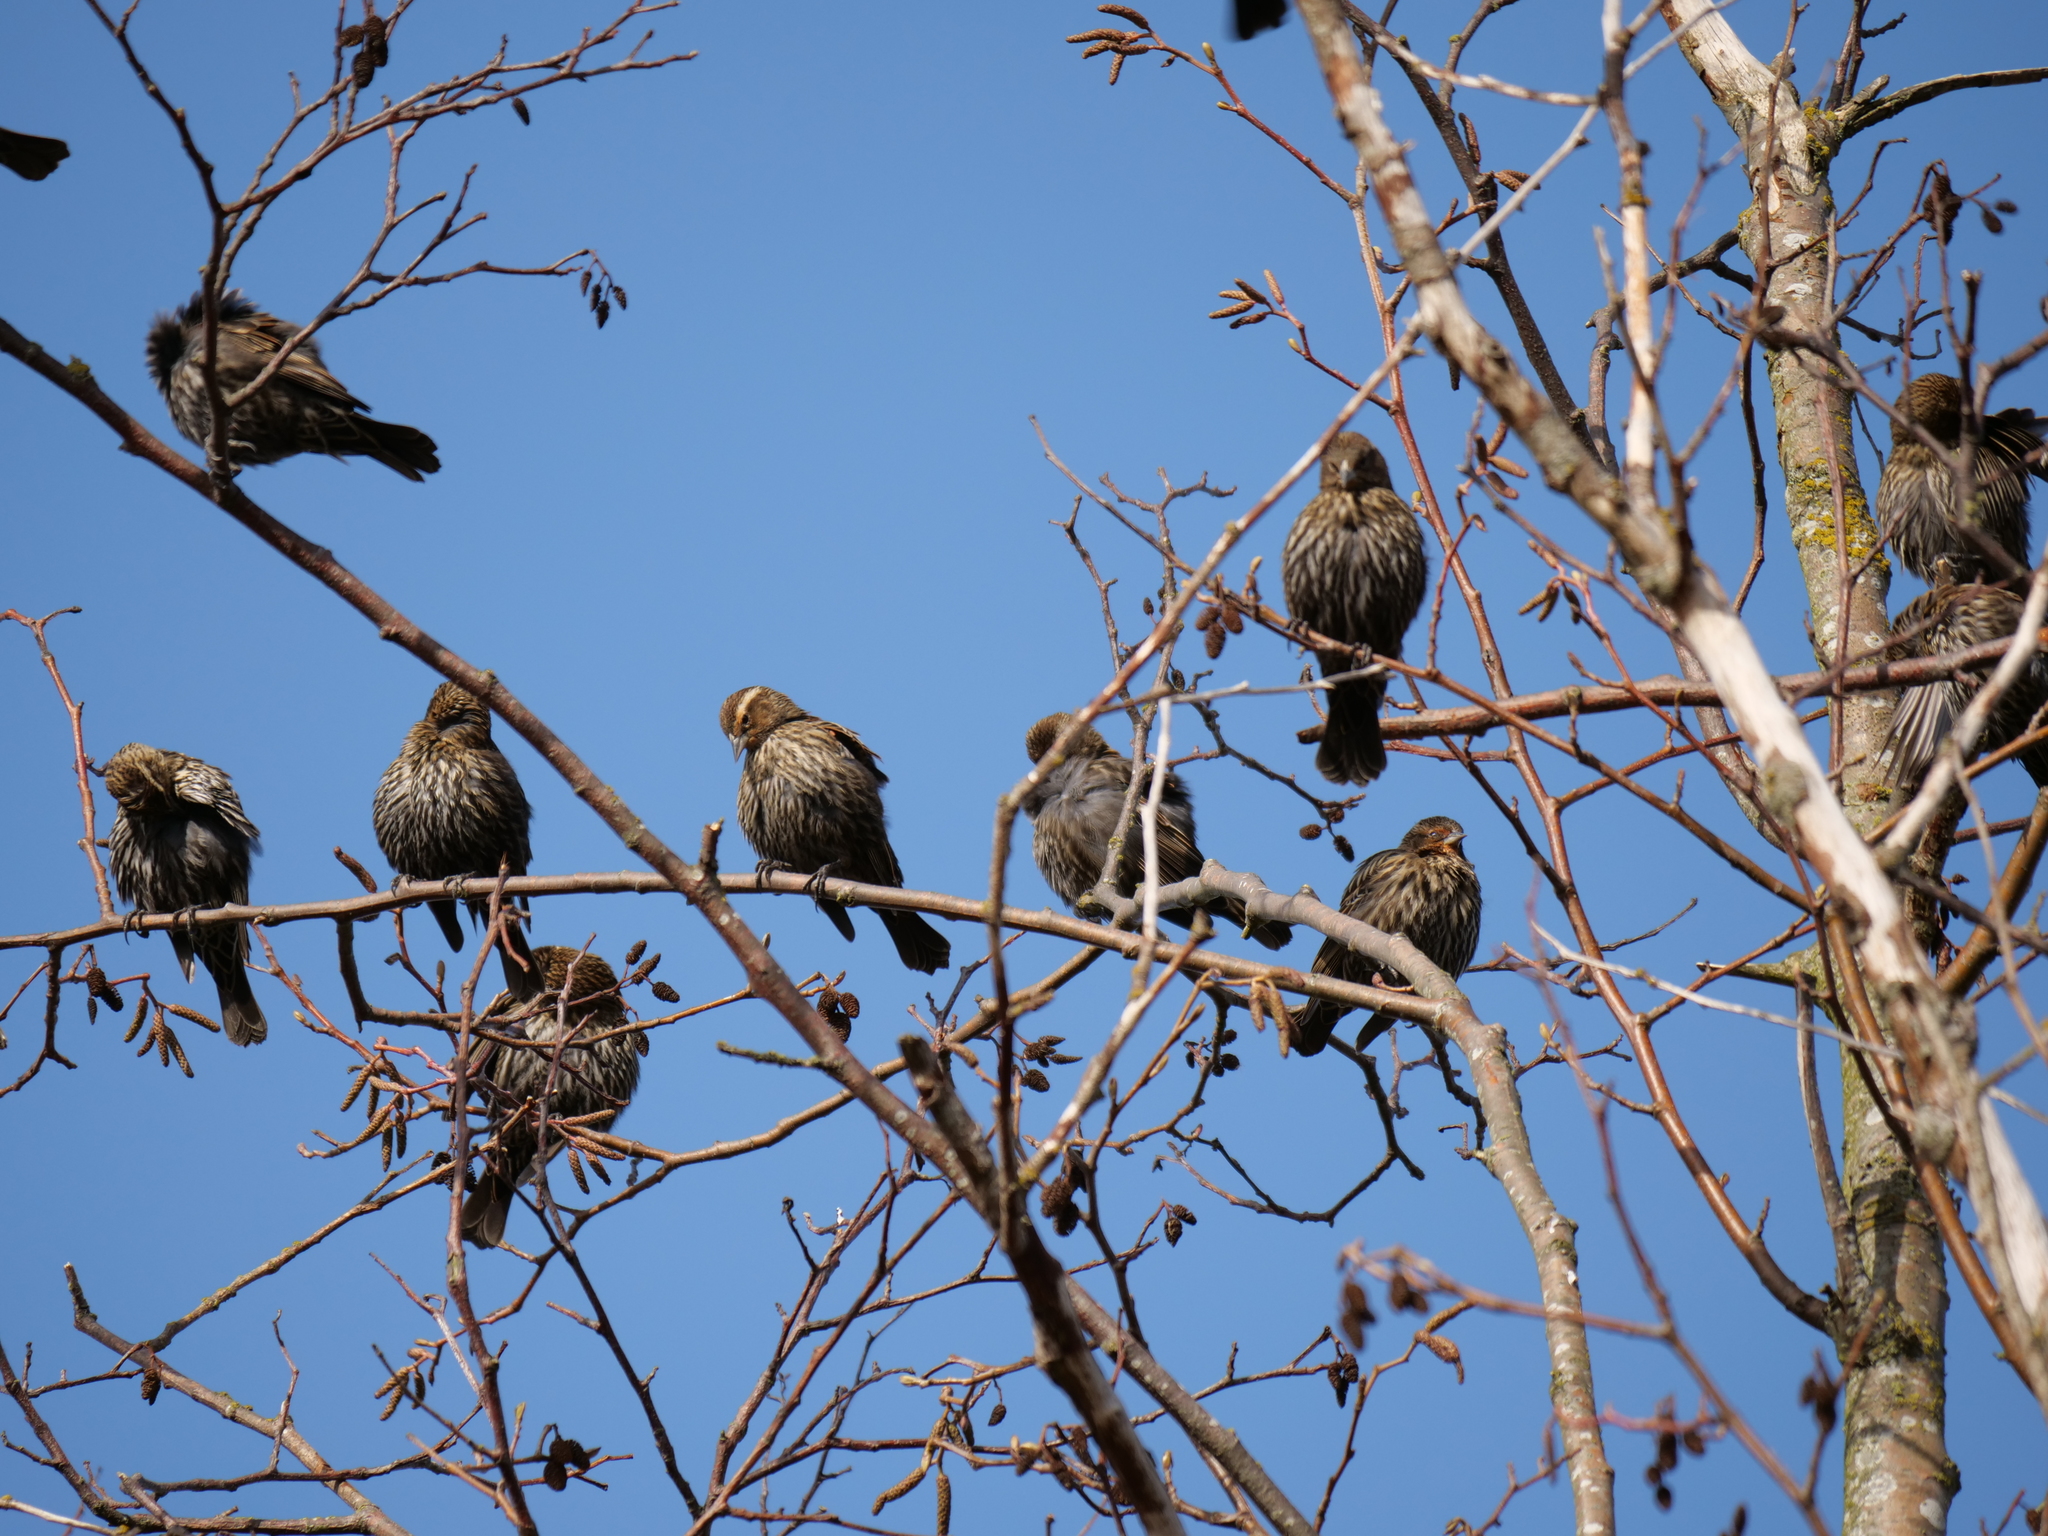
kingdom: Animalia
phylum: Chordata
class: Aves
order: Passeriformes
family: Icteridae
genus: Agelaius
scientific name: Agelaius phoeniceus
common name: Red-winged blackbird
